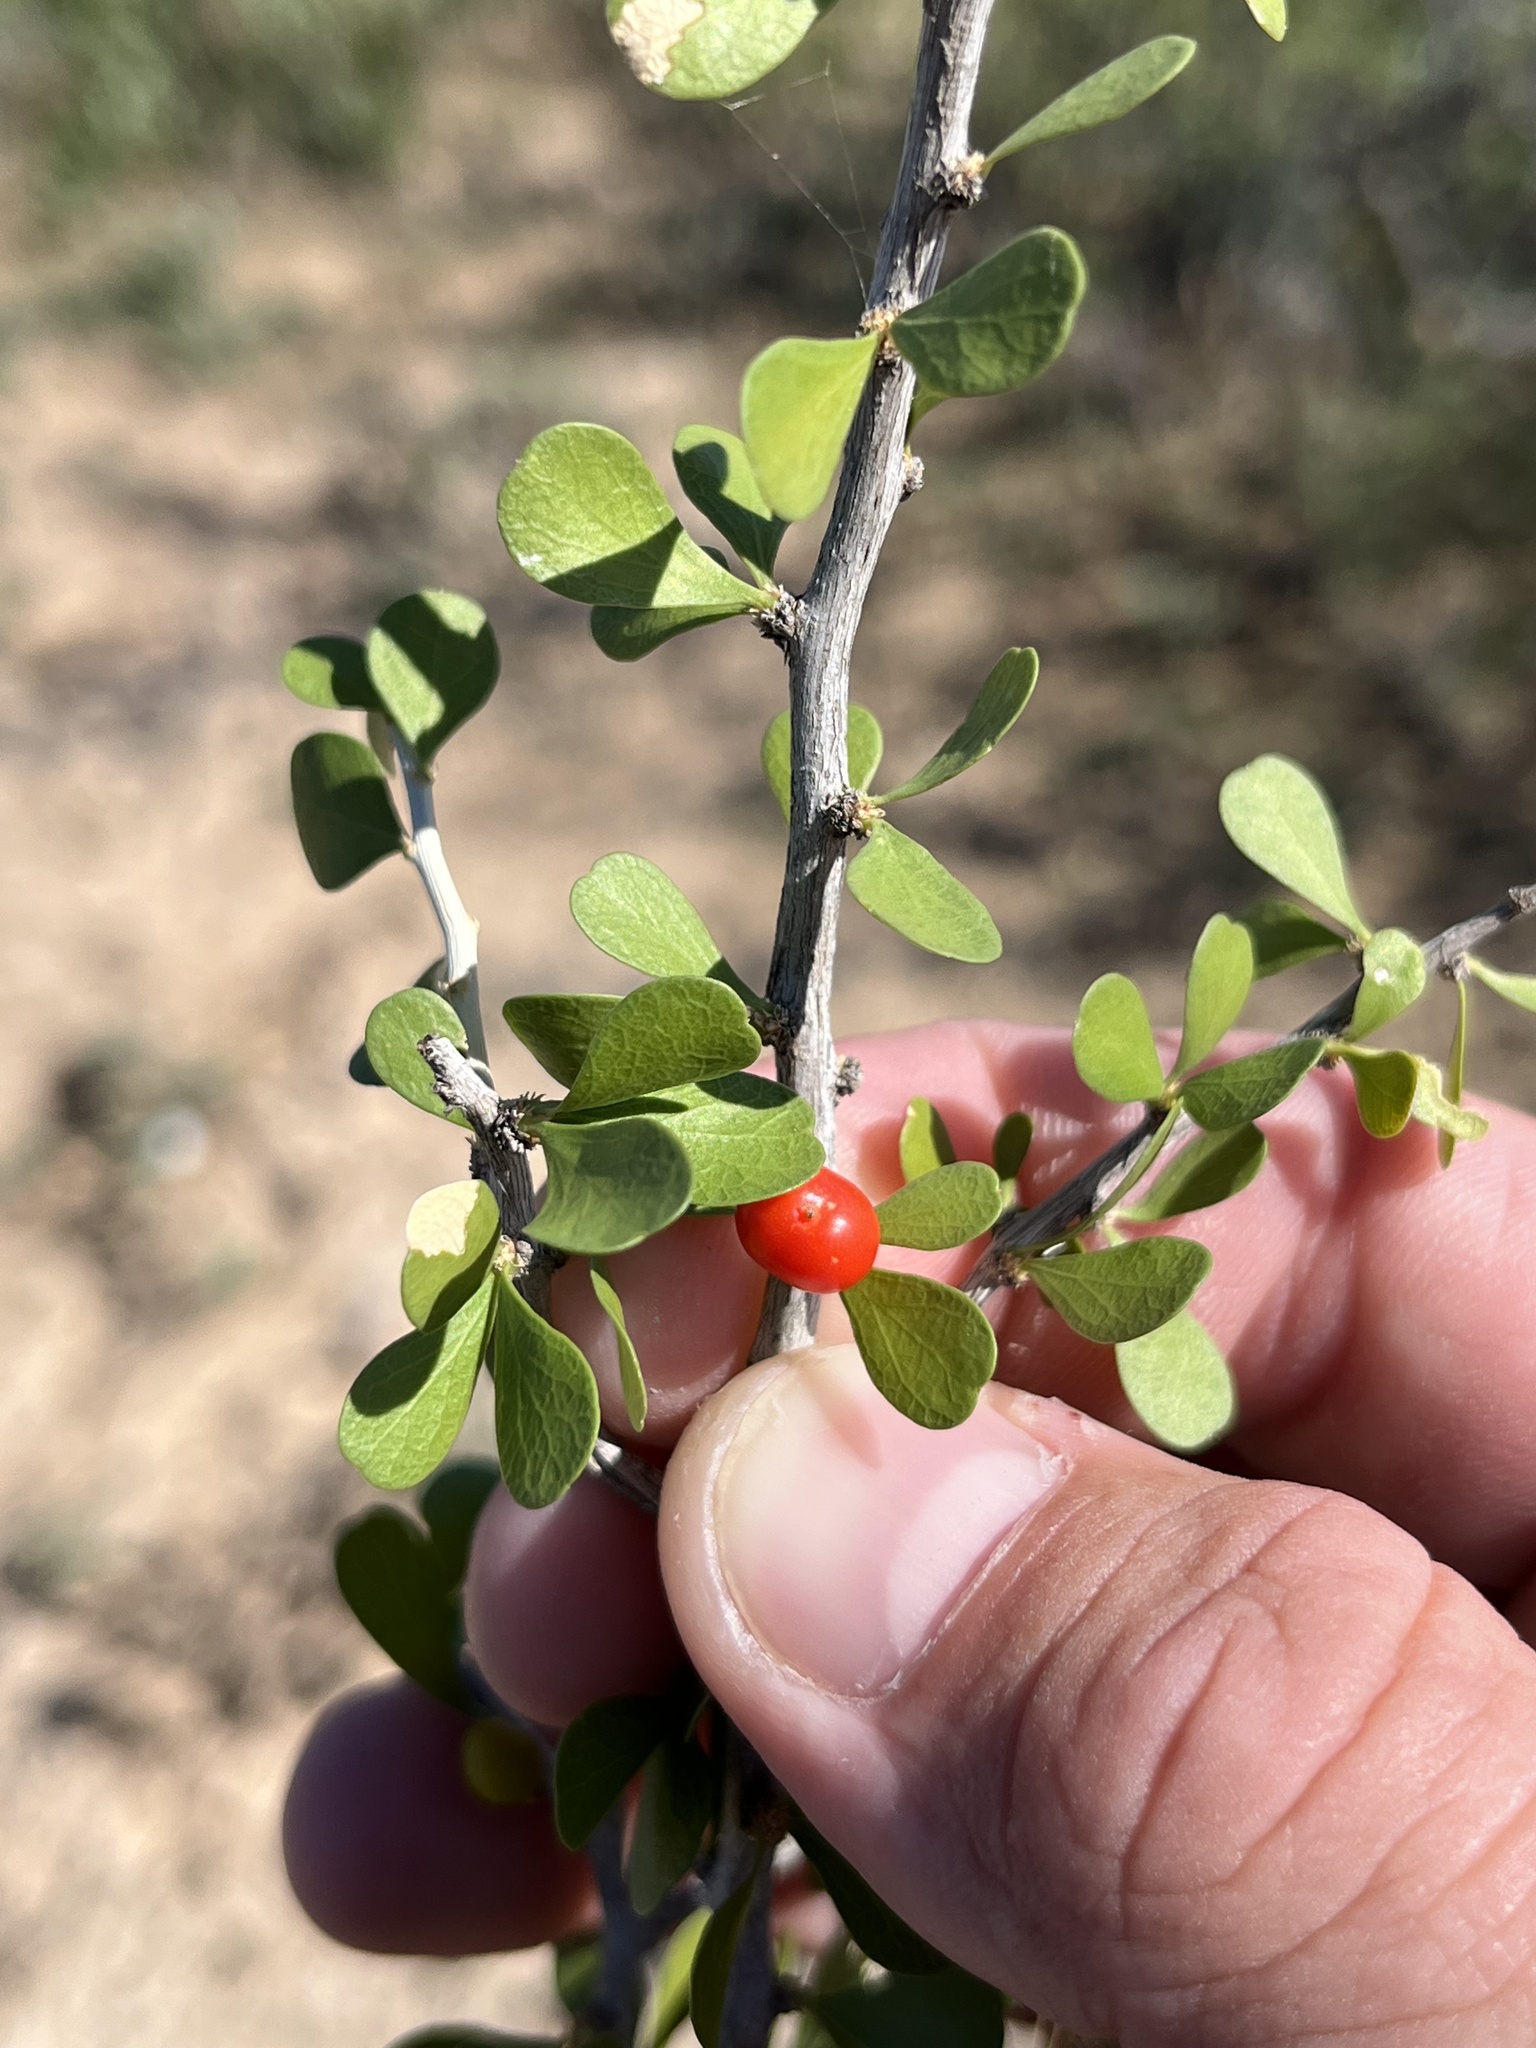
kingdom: Plantae
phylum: Tracheophyta
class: Magnoliopsida
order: Celastrales
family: Celastraceae
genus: Schaefferia
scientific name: Schaefferia cuneifolia
